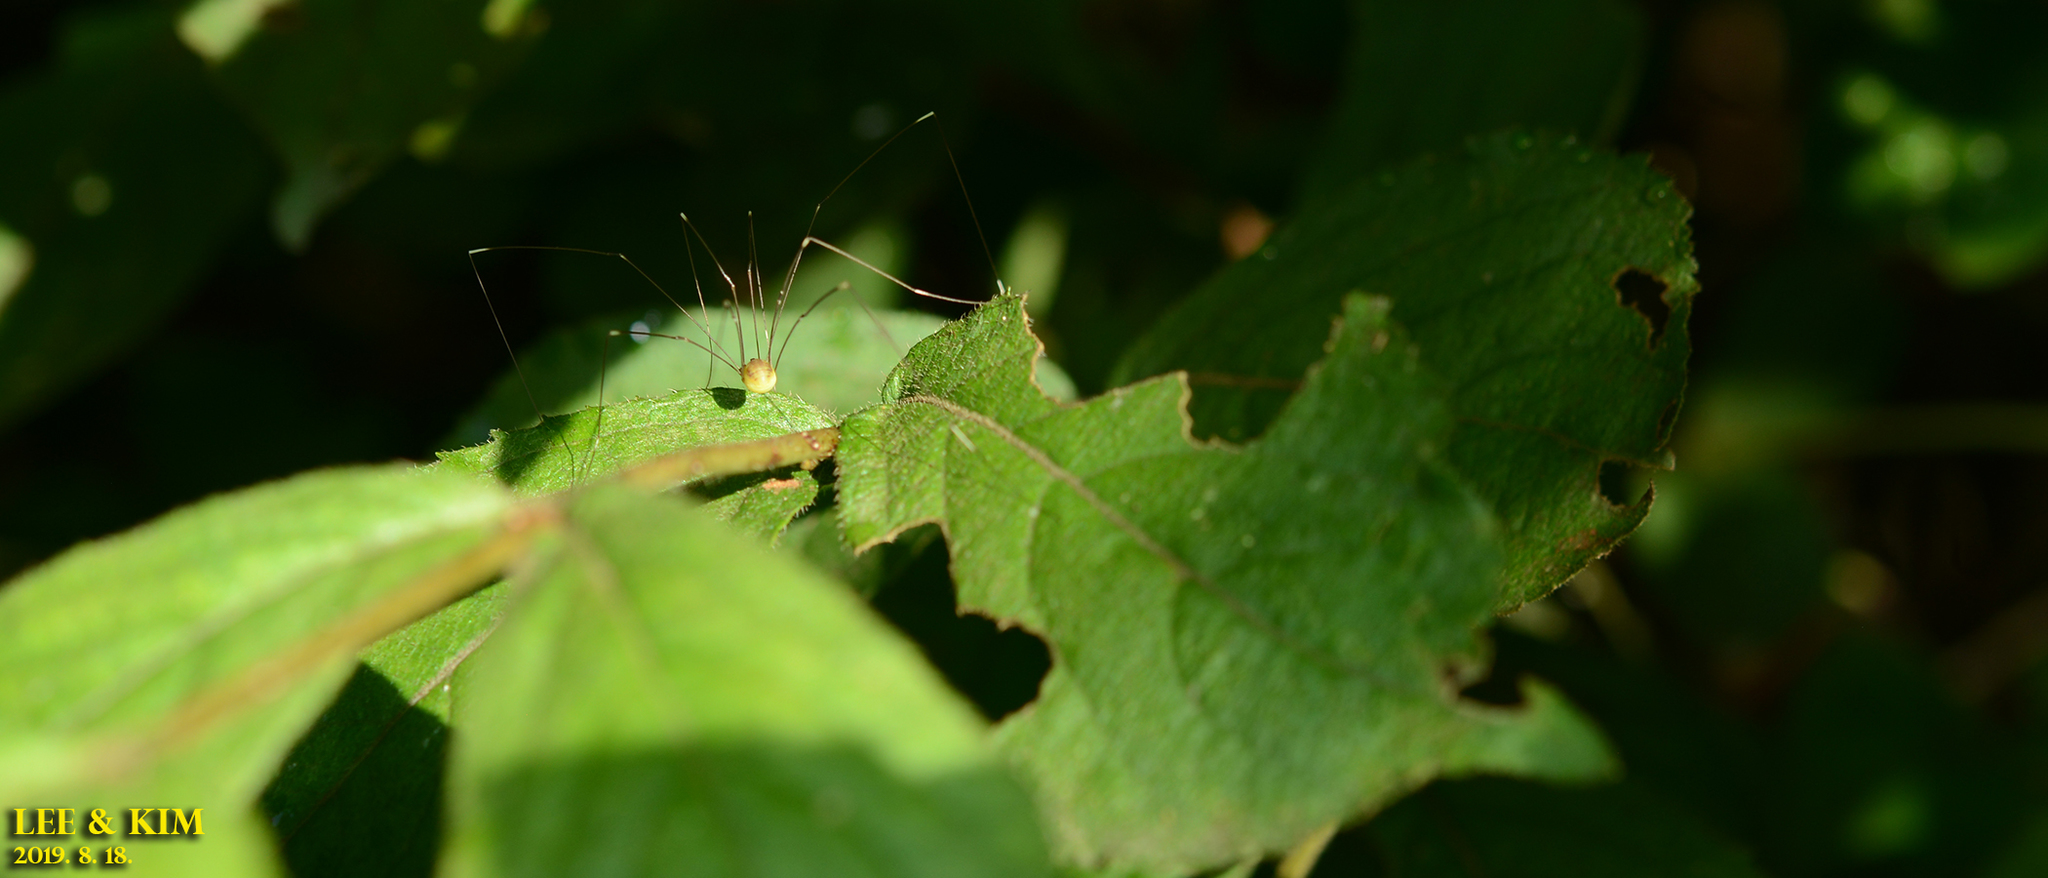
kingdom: Animalia
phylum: Arthropoda
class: Arachnida
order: Opiliones
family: Sclerosomatidae
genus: Leiobunum
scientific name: Leiobunum japonicum
